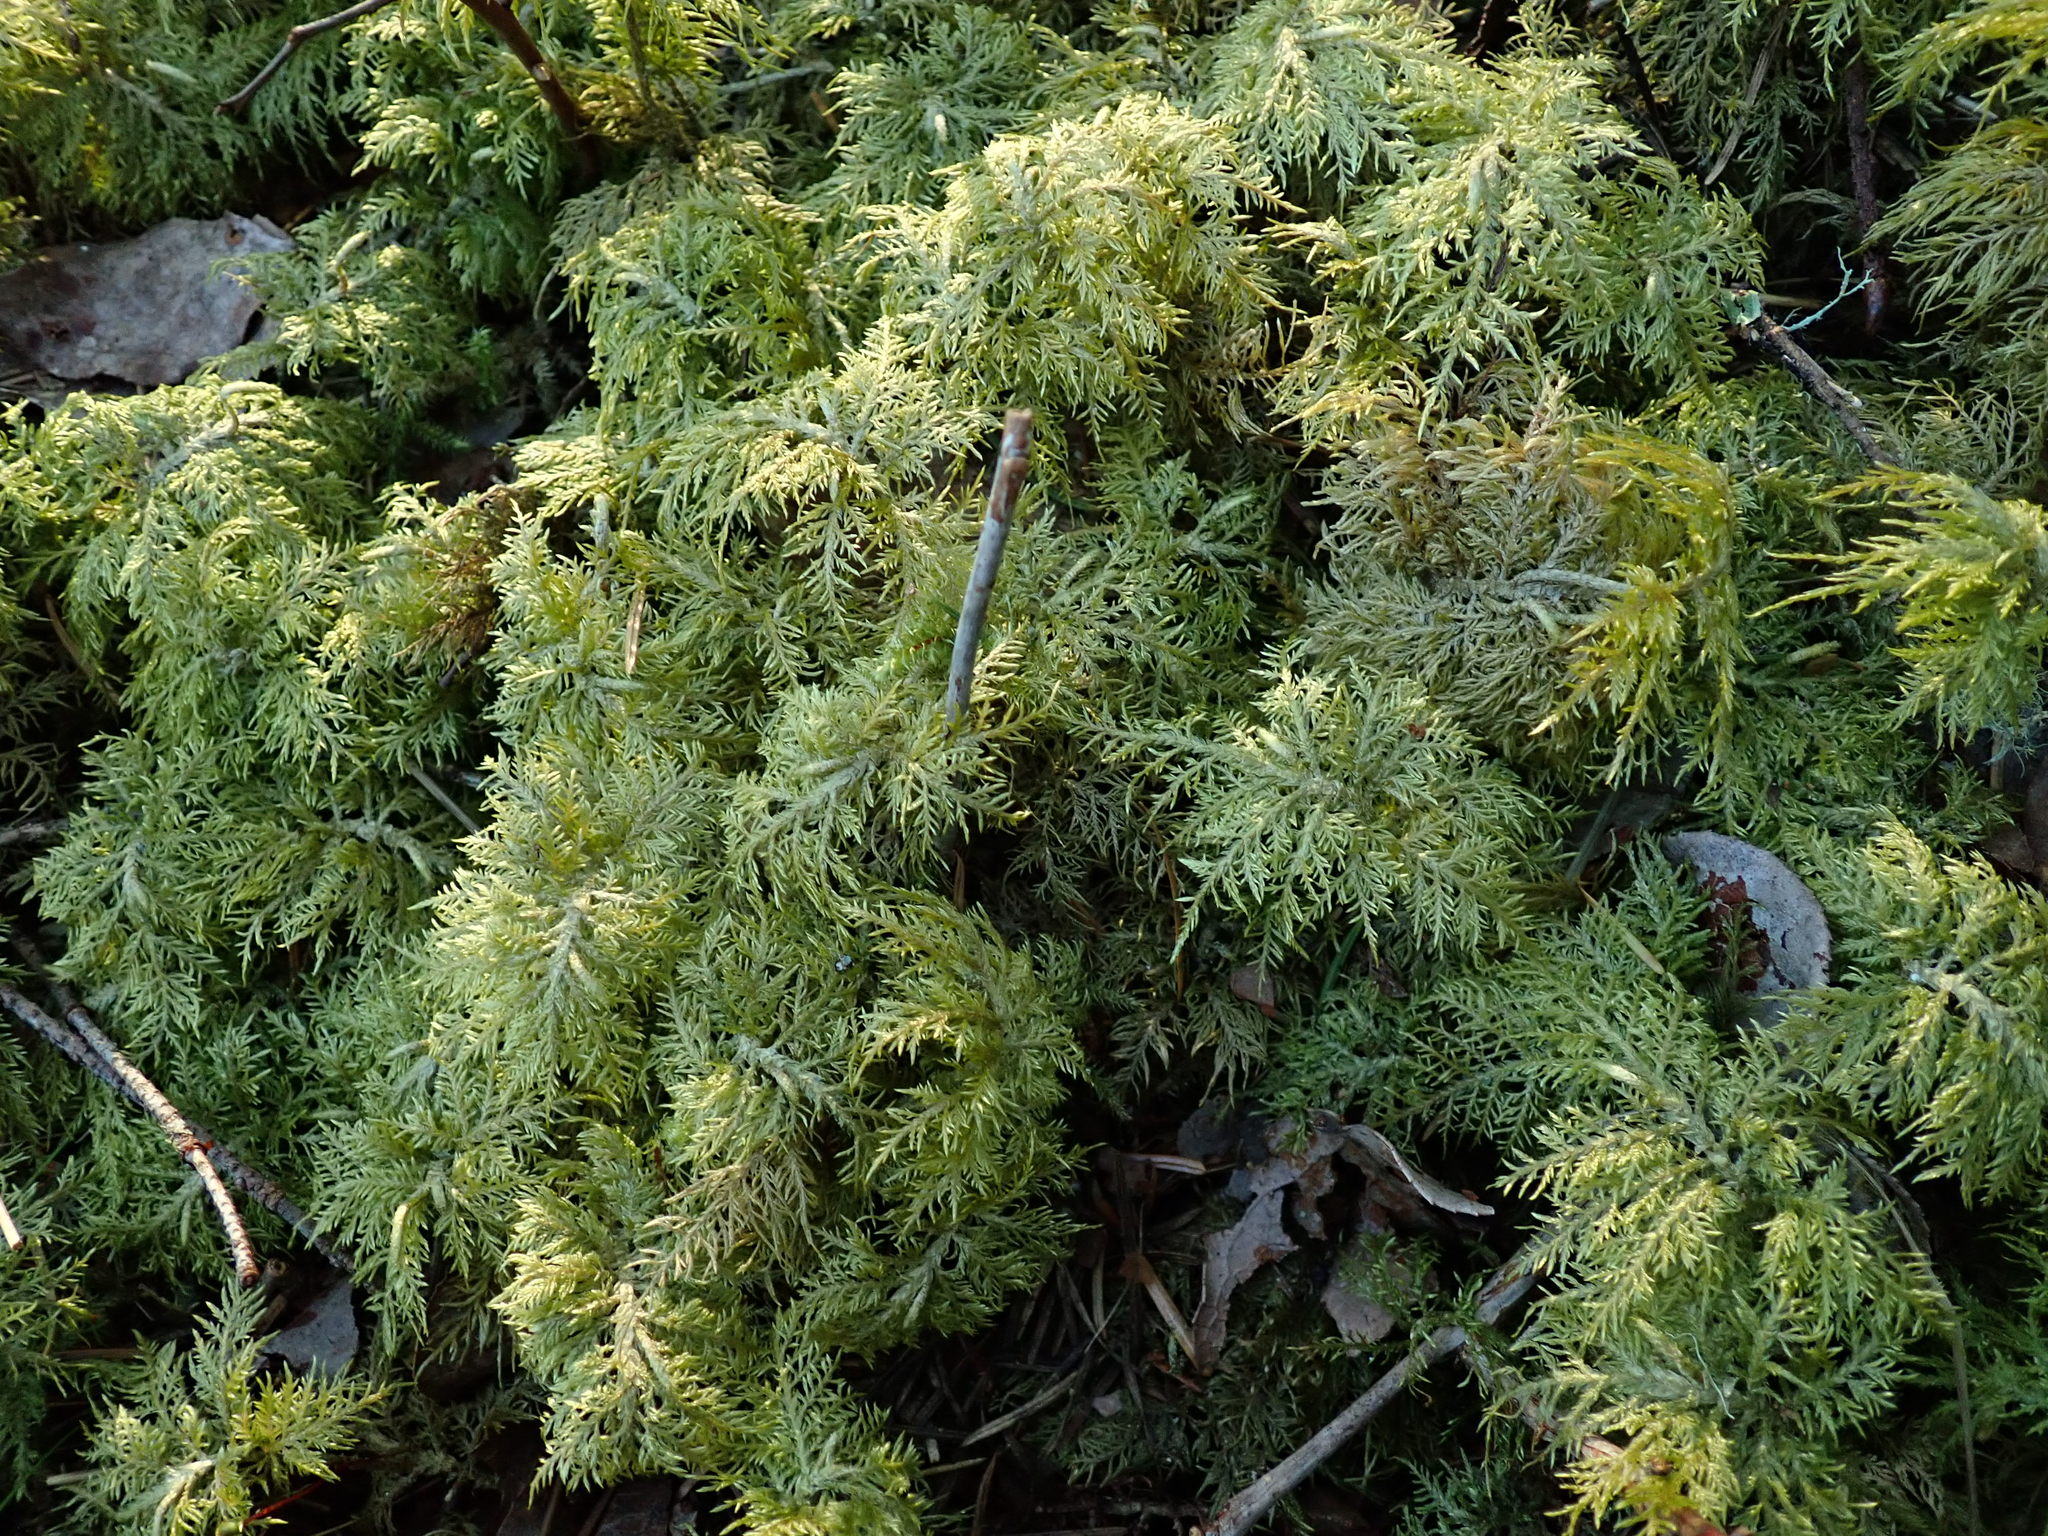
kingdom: Plantae
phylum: Bryophyta
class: Bryopsida
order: Hypnales
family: Hylocomiaceae
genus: Hylocomium
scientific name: Hylocomium splendens
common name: Stairstep moss
